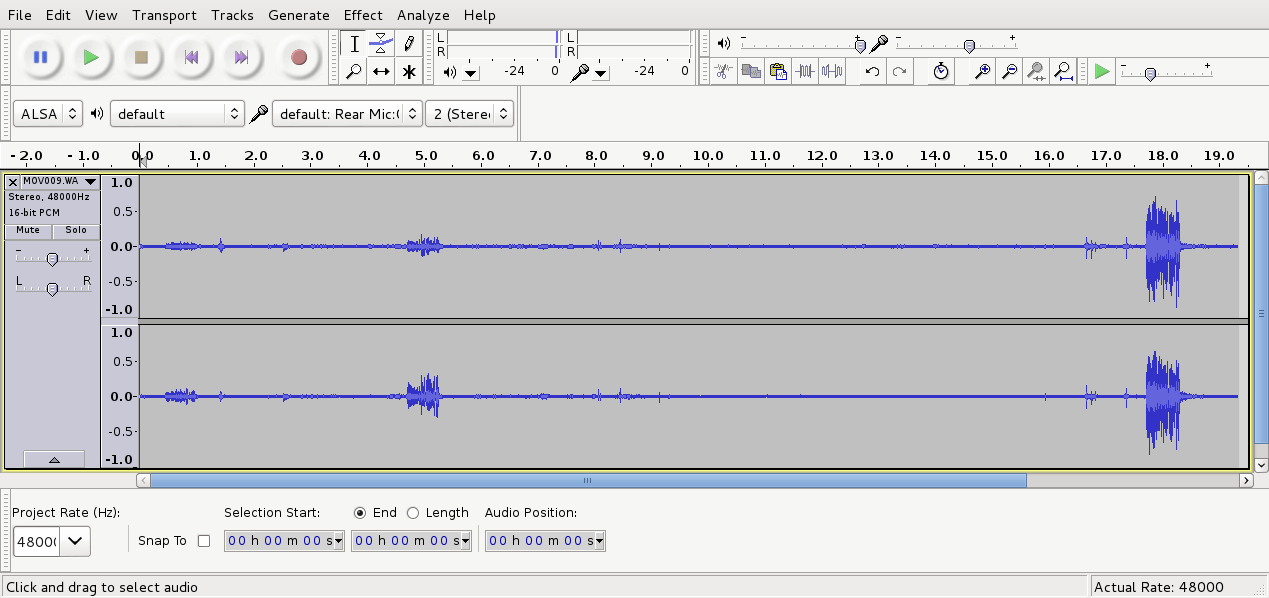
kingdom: Animalia
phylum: Chordata
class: Aves
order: Psittaciformes
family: Psittacidae
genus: Nestor
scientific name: Nestor meridionalis
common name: New zealand kaka
